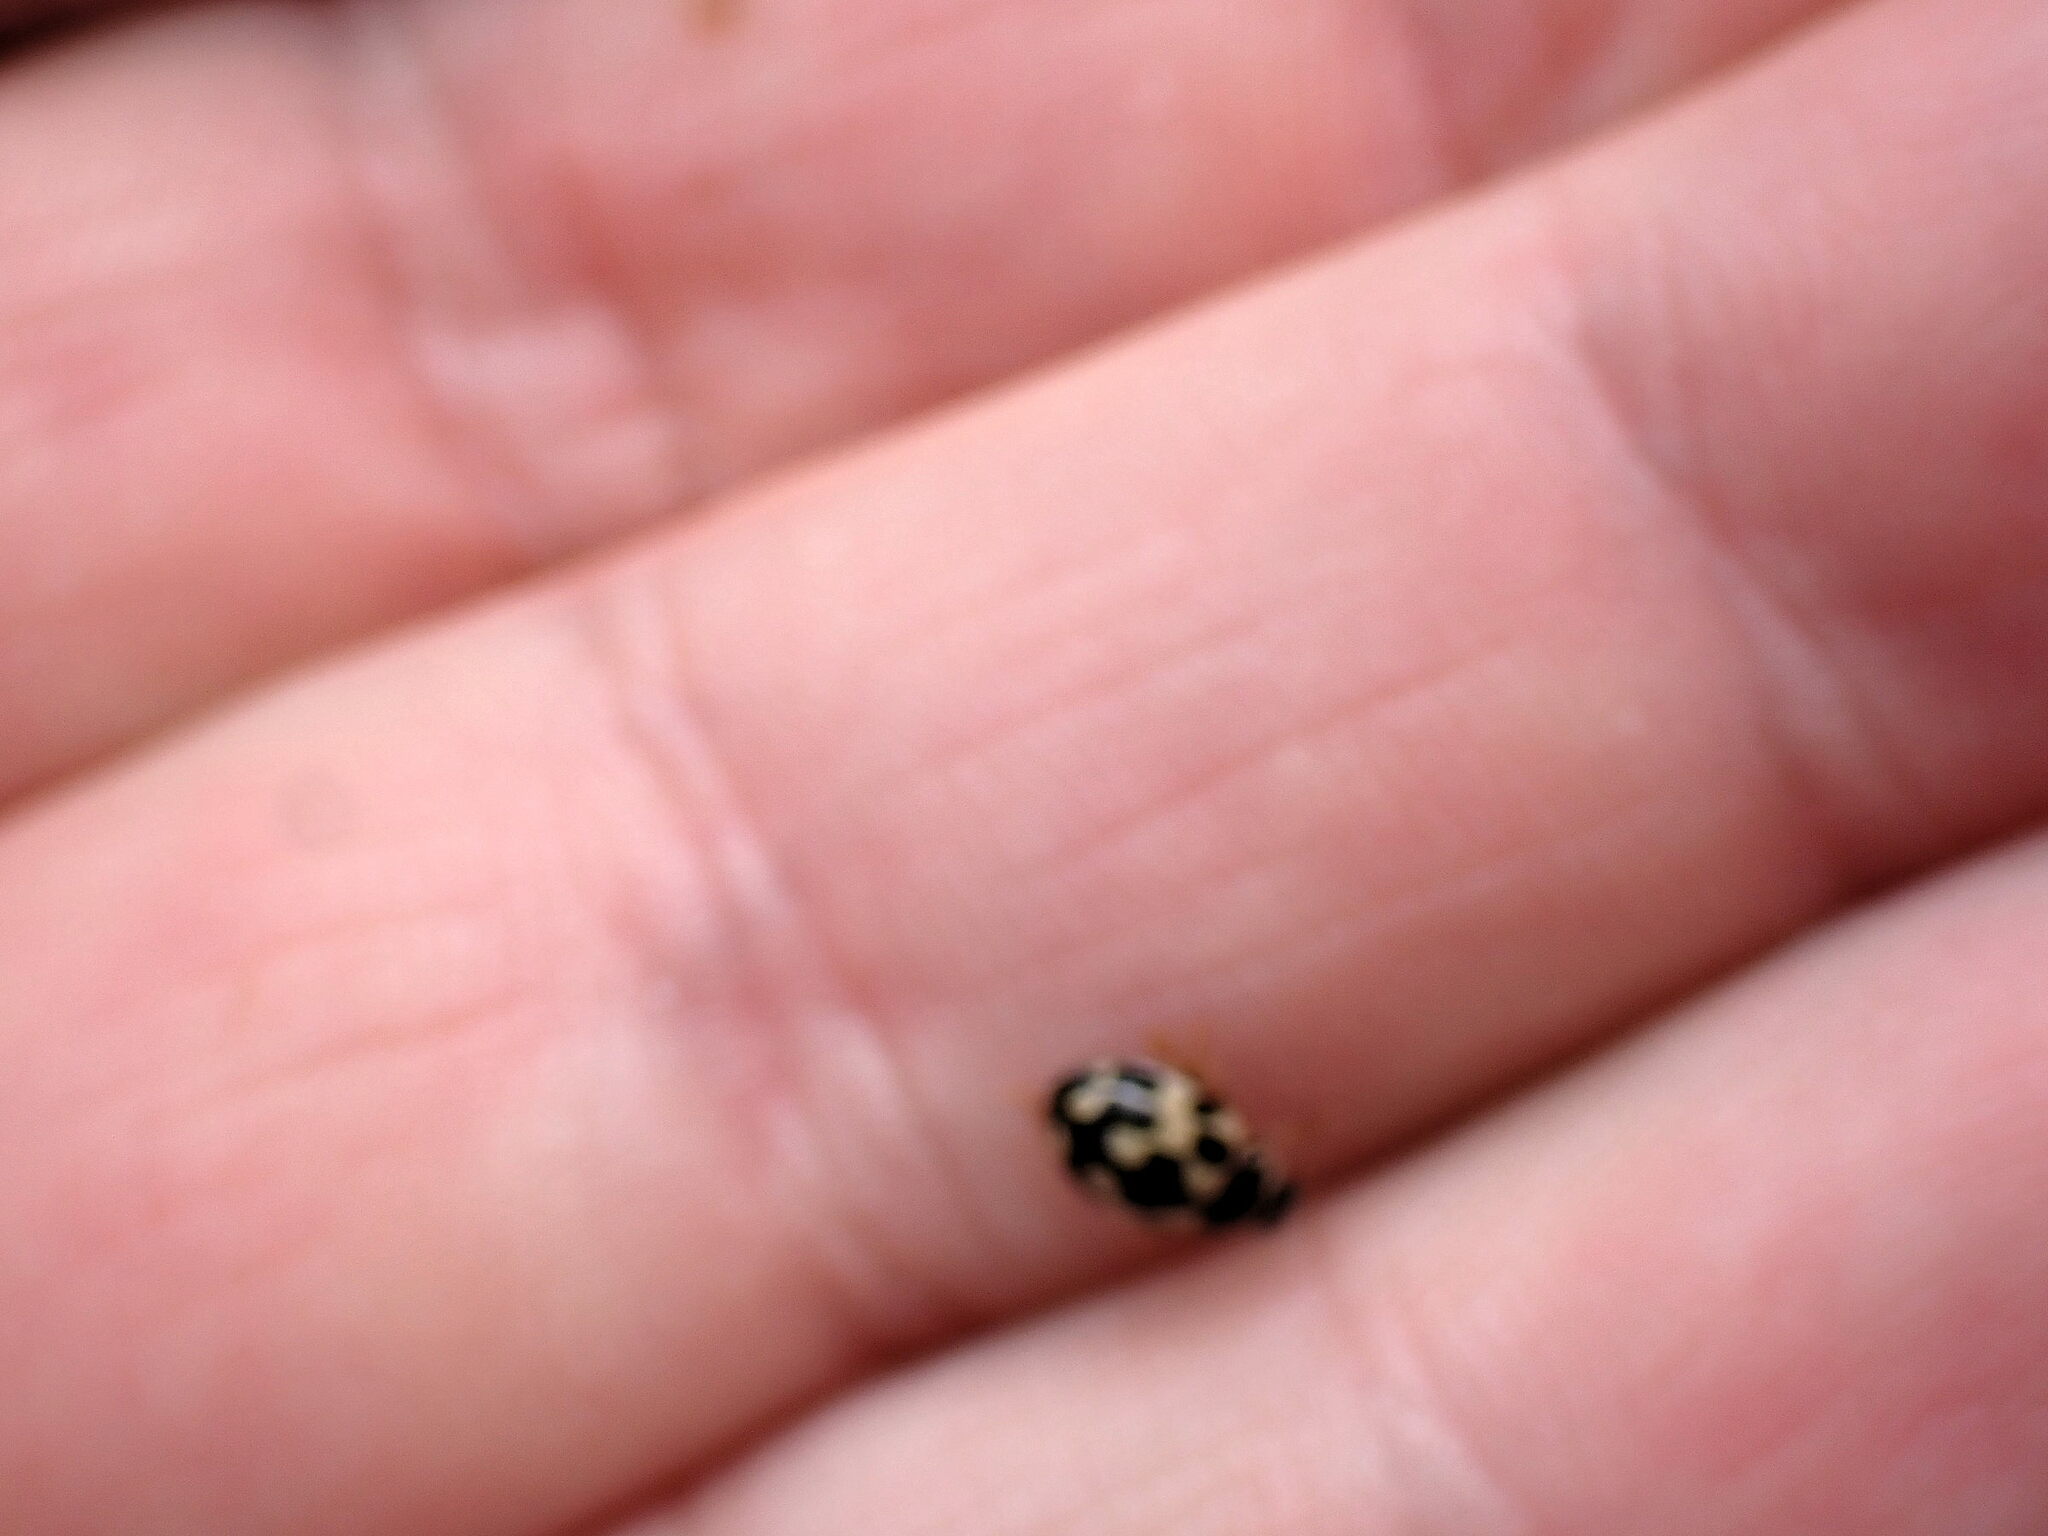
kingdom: Animalia
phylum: Arthropoda
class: Insecta
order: Coleoptera
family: Coccinellidae
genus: Propylaea
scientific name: Propylaea quatuordecimpunctata
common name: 14-spotted ladybird beetle
